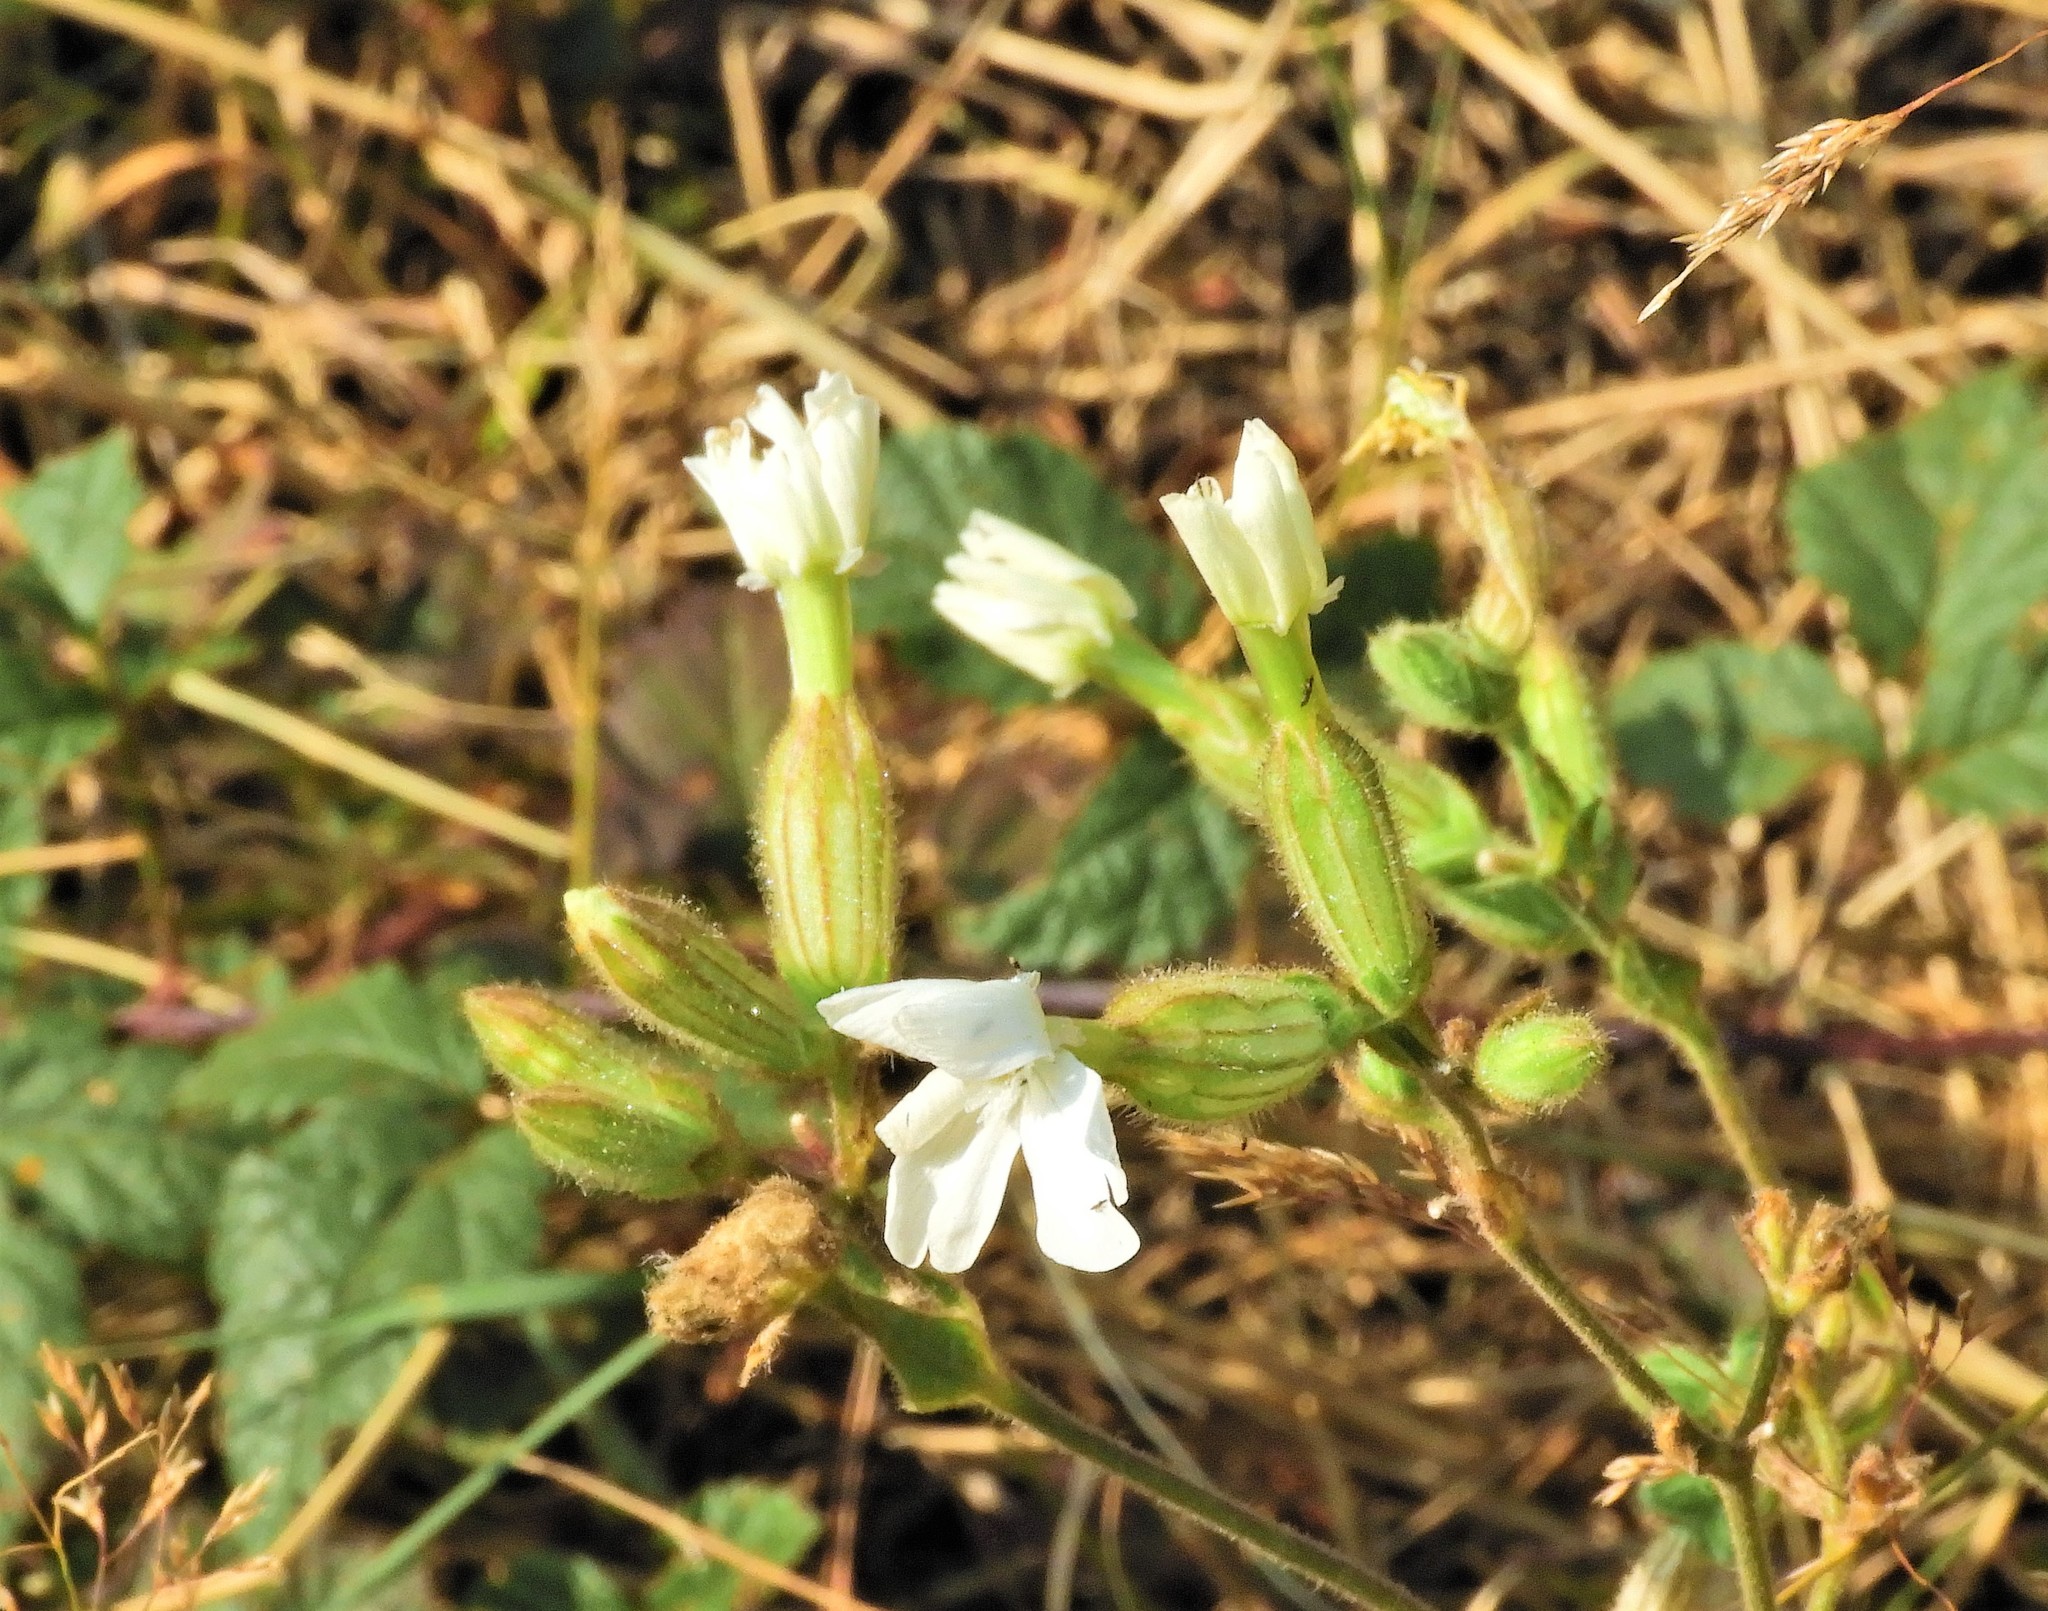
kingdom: Plantae
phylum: Tracheophyta
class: Magnoliopsida
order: Caryophyllales
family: Caryophyllaceae
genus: Silene
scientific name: Silene latifolia
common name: White campion
